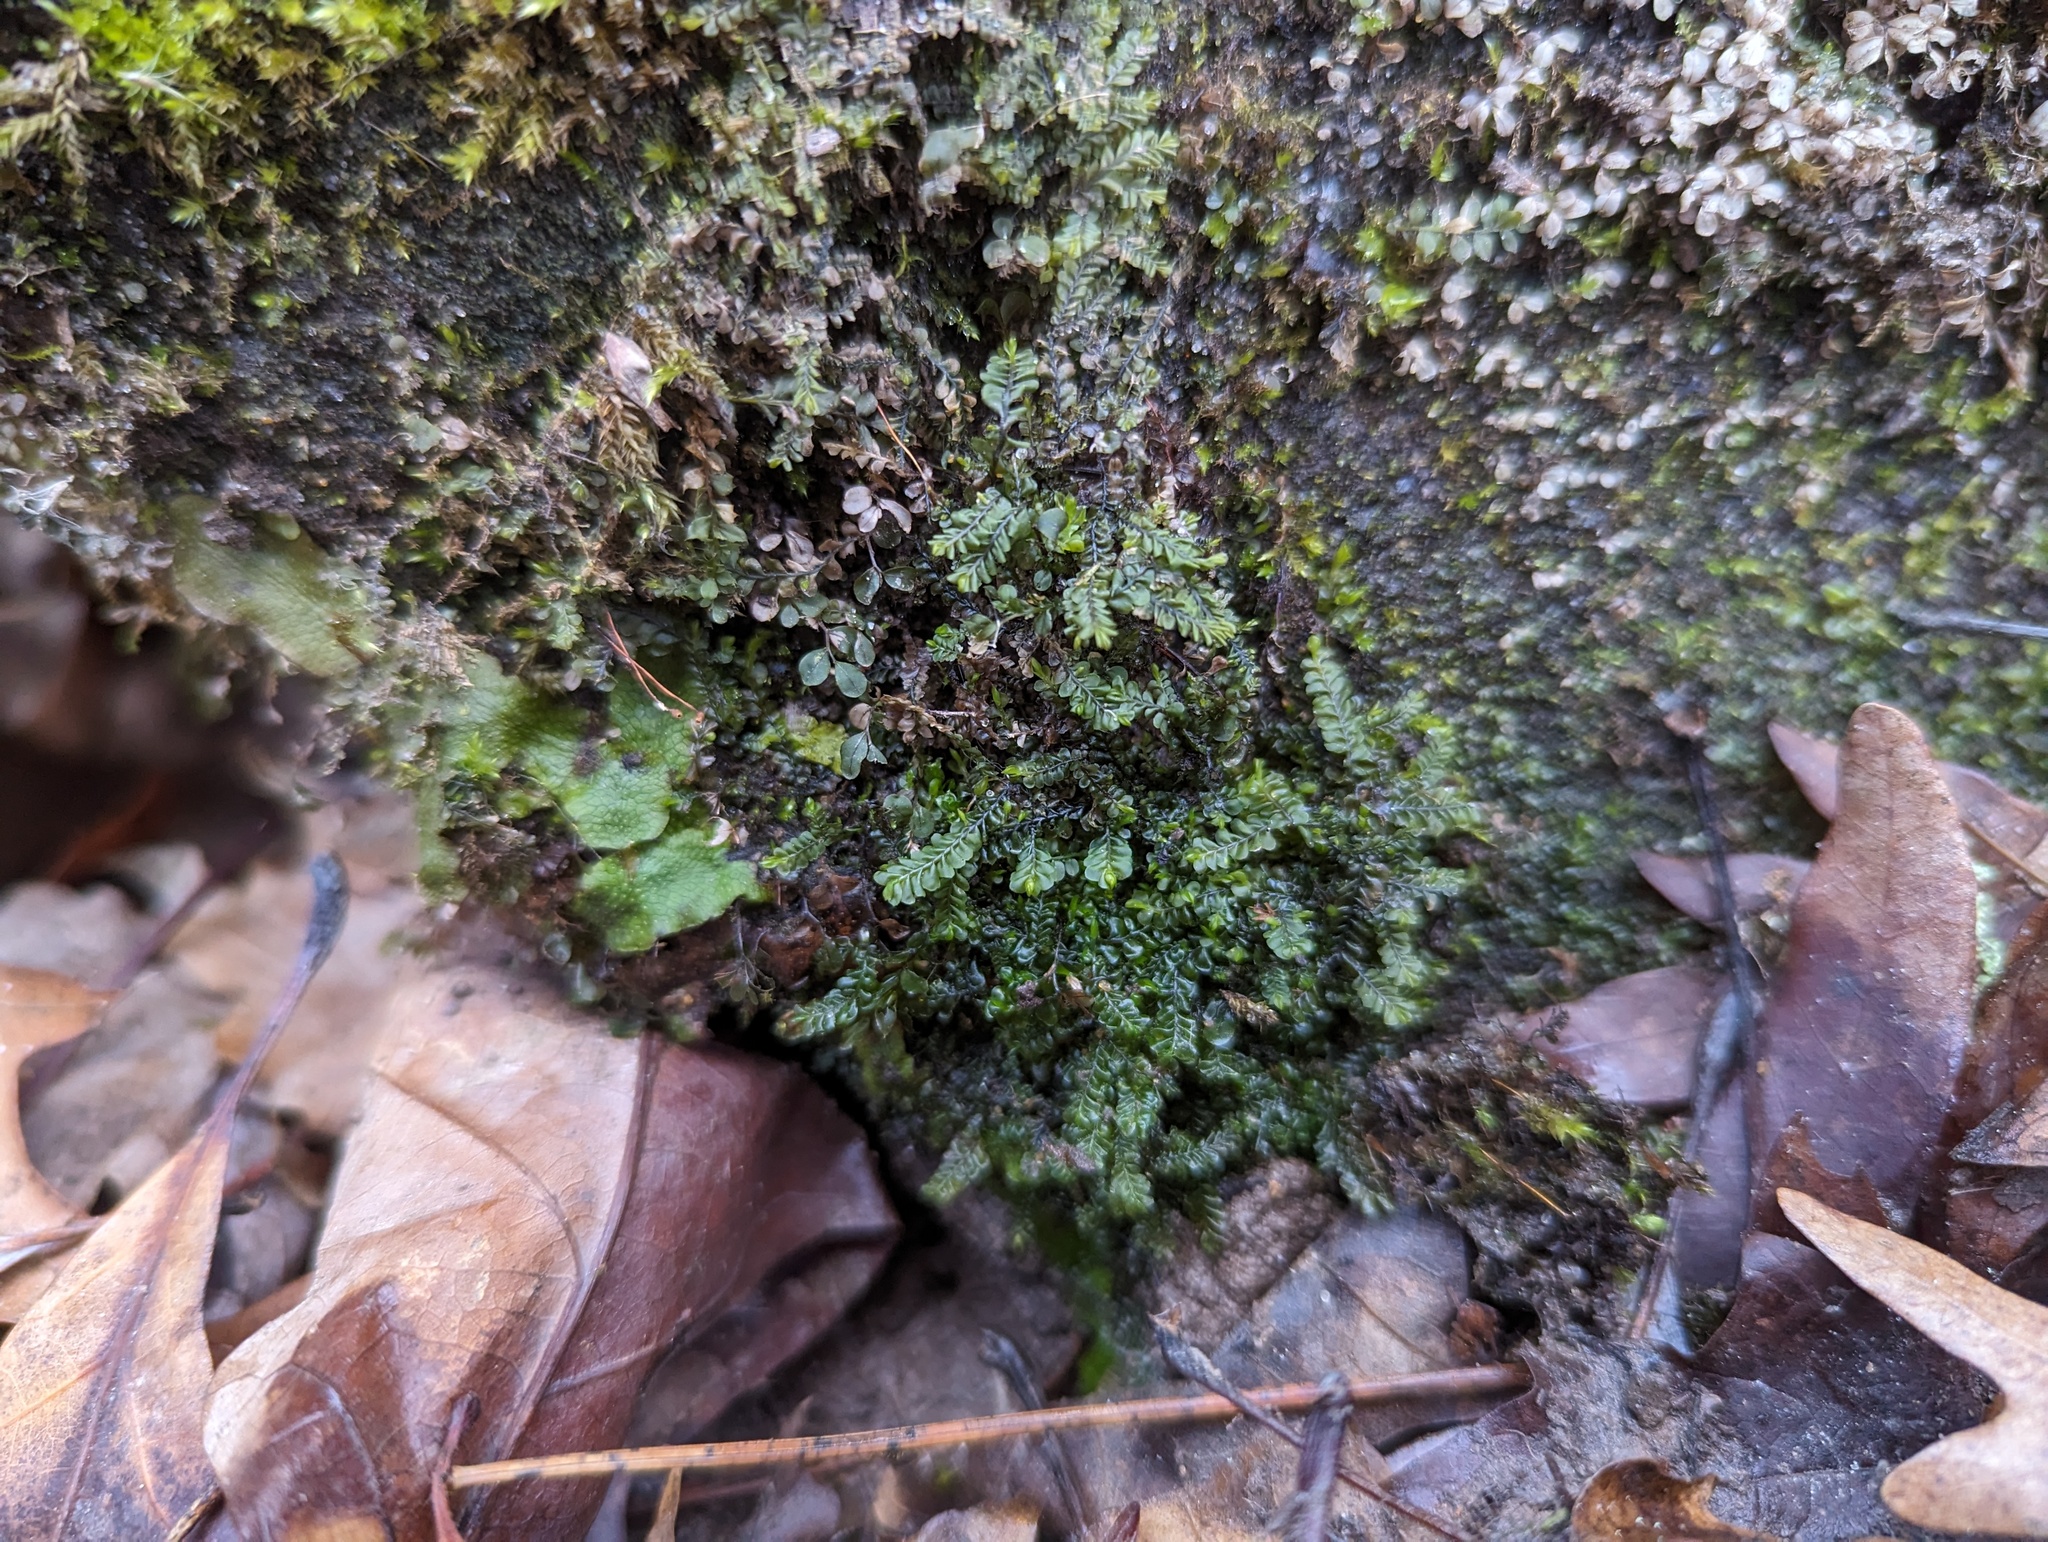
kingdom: Plantae
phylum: Marchantiophyta
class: Jungermanniopsida
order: Jungermanniales
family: Plagiochilaceae
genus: Plagiochila
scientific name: Plagiochila porelloides
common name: Lesser featherwort
